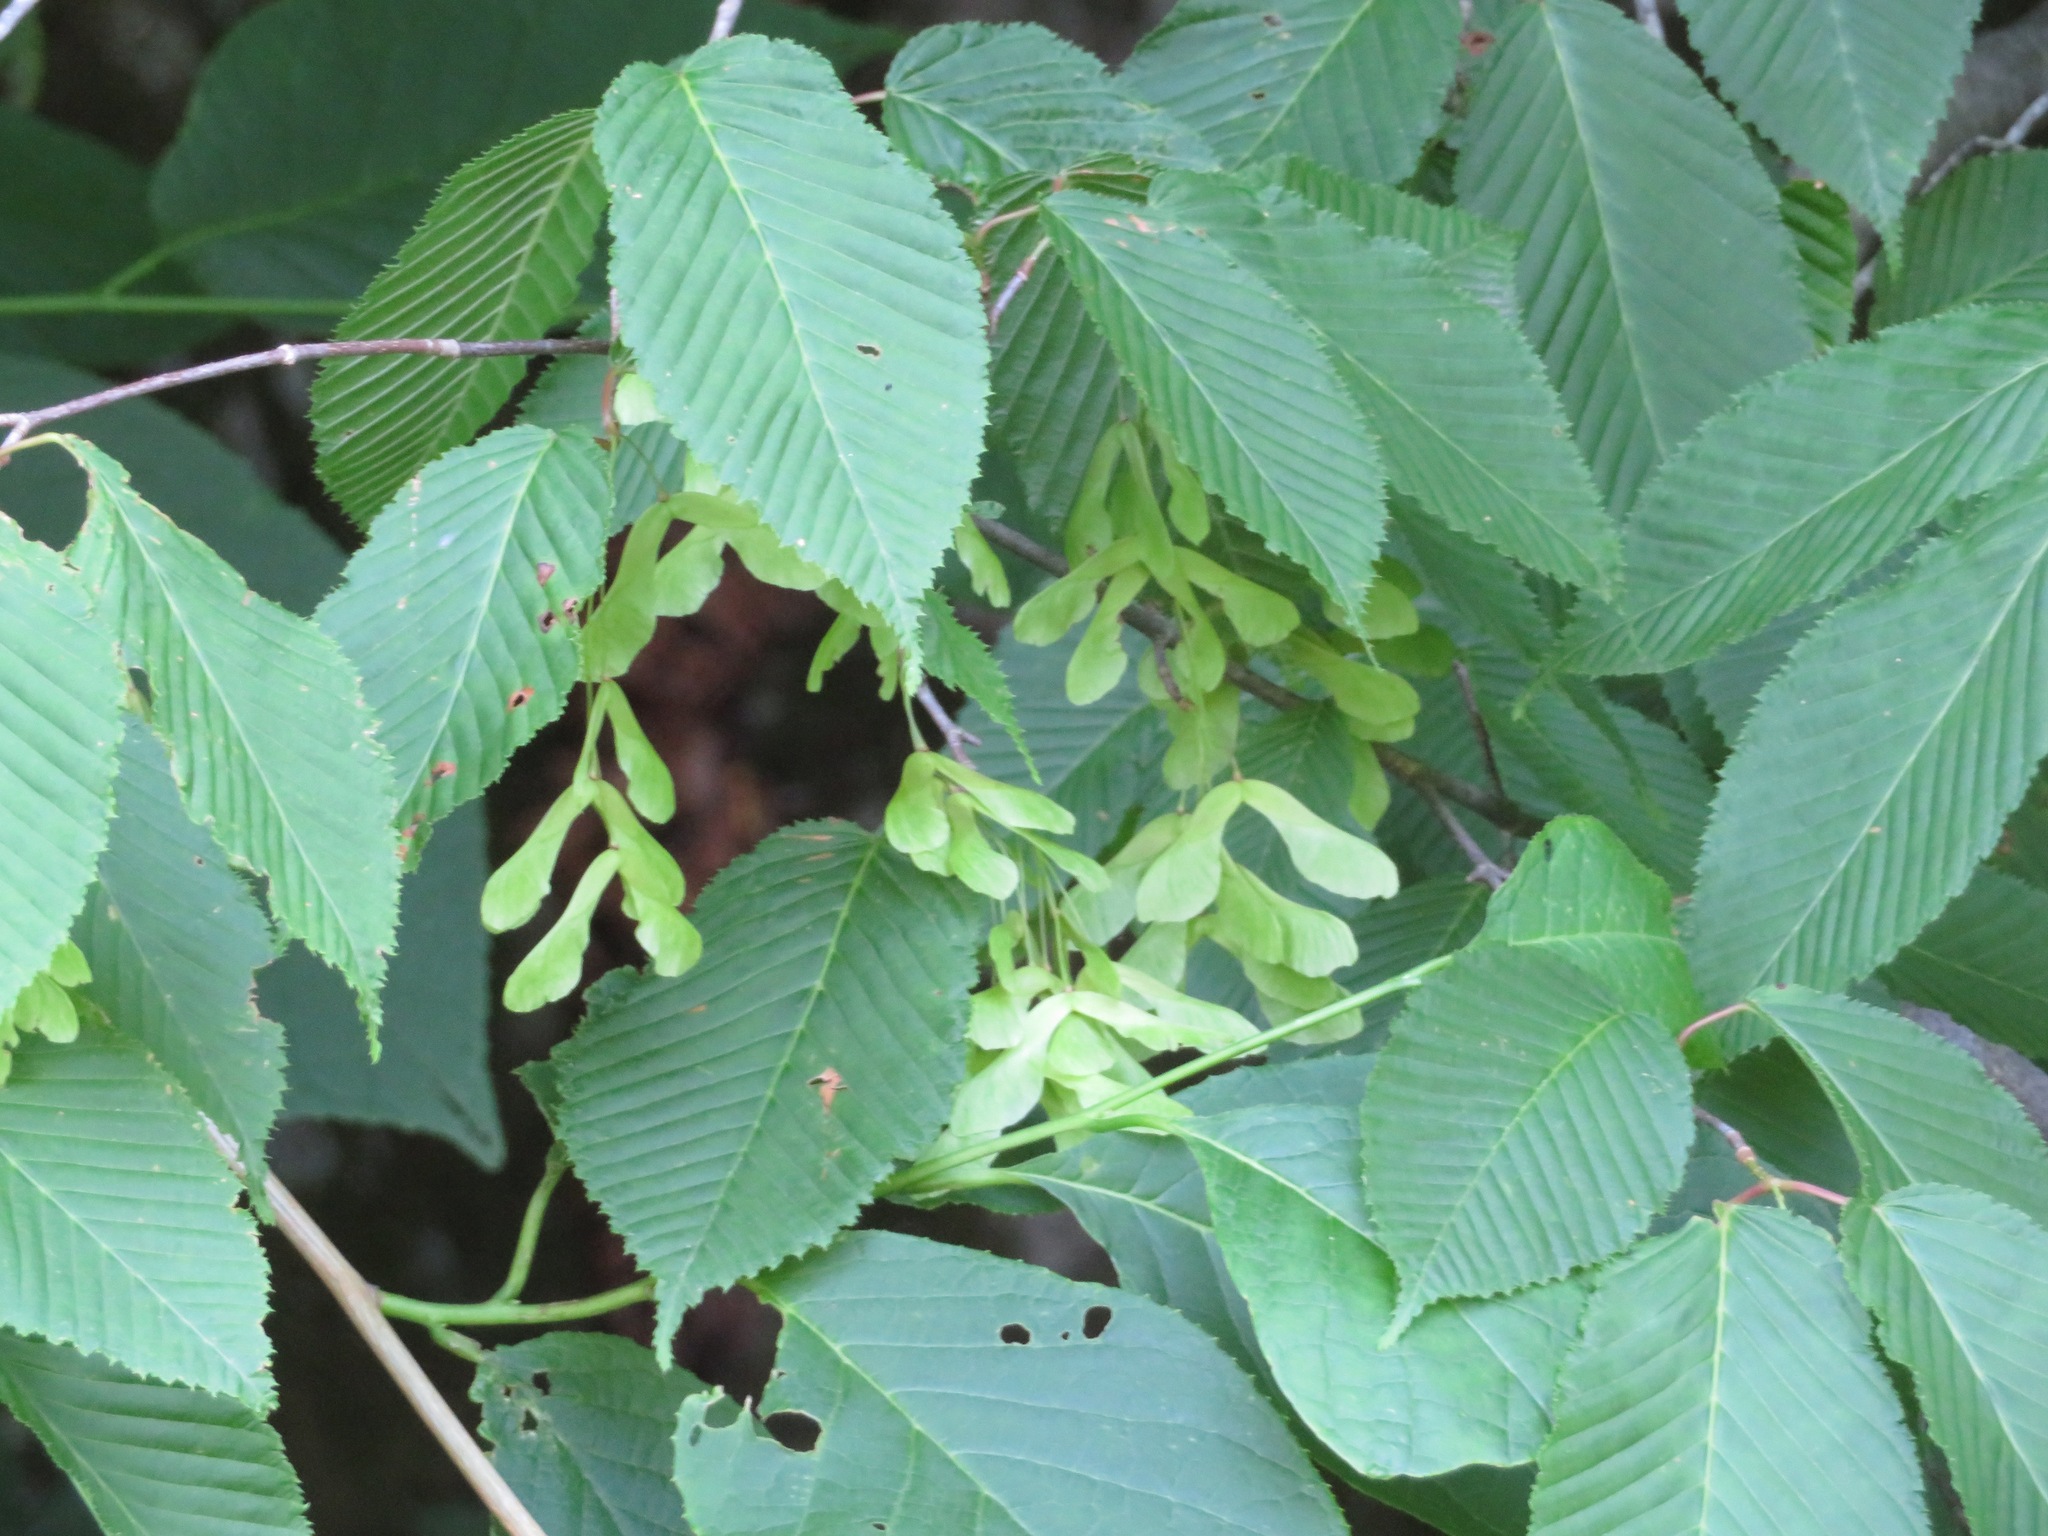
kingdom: Plantae
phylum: Tracheophyta
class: Magnoliopsida
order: Sapindales
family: Sapindaceae
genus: Acer
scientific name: Acer carpinifolium
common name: Hornbeam maple
